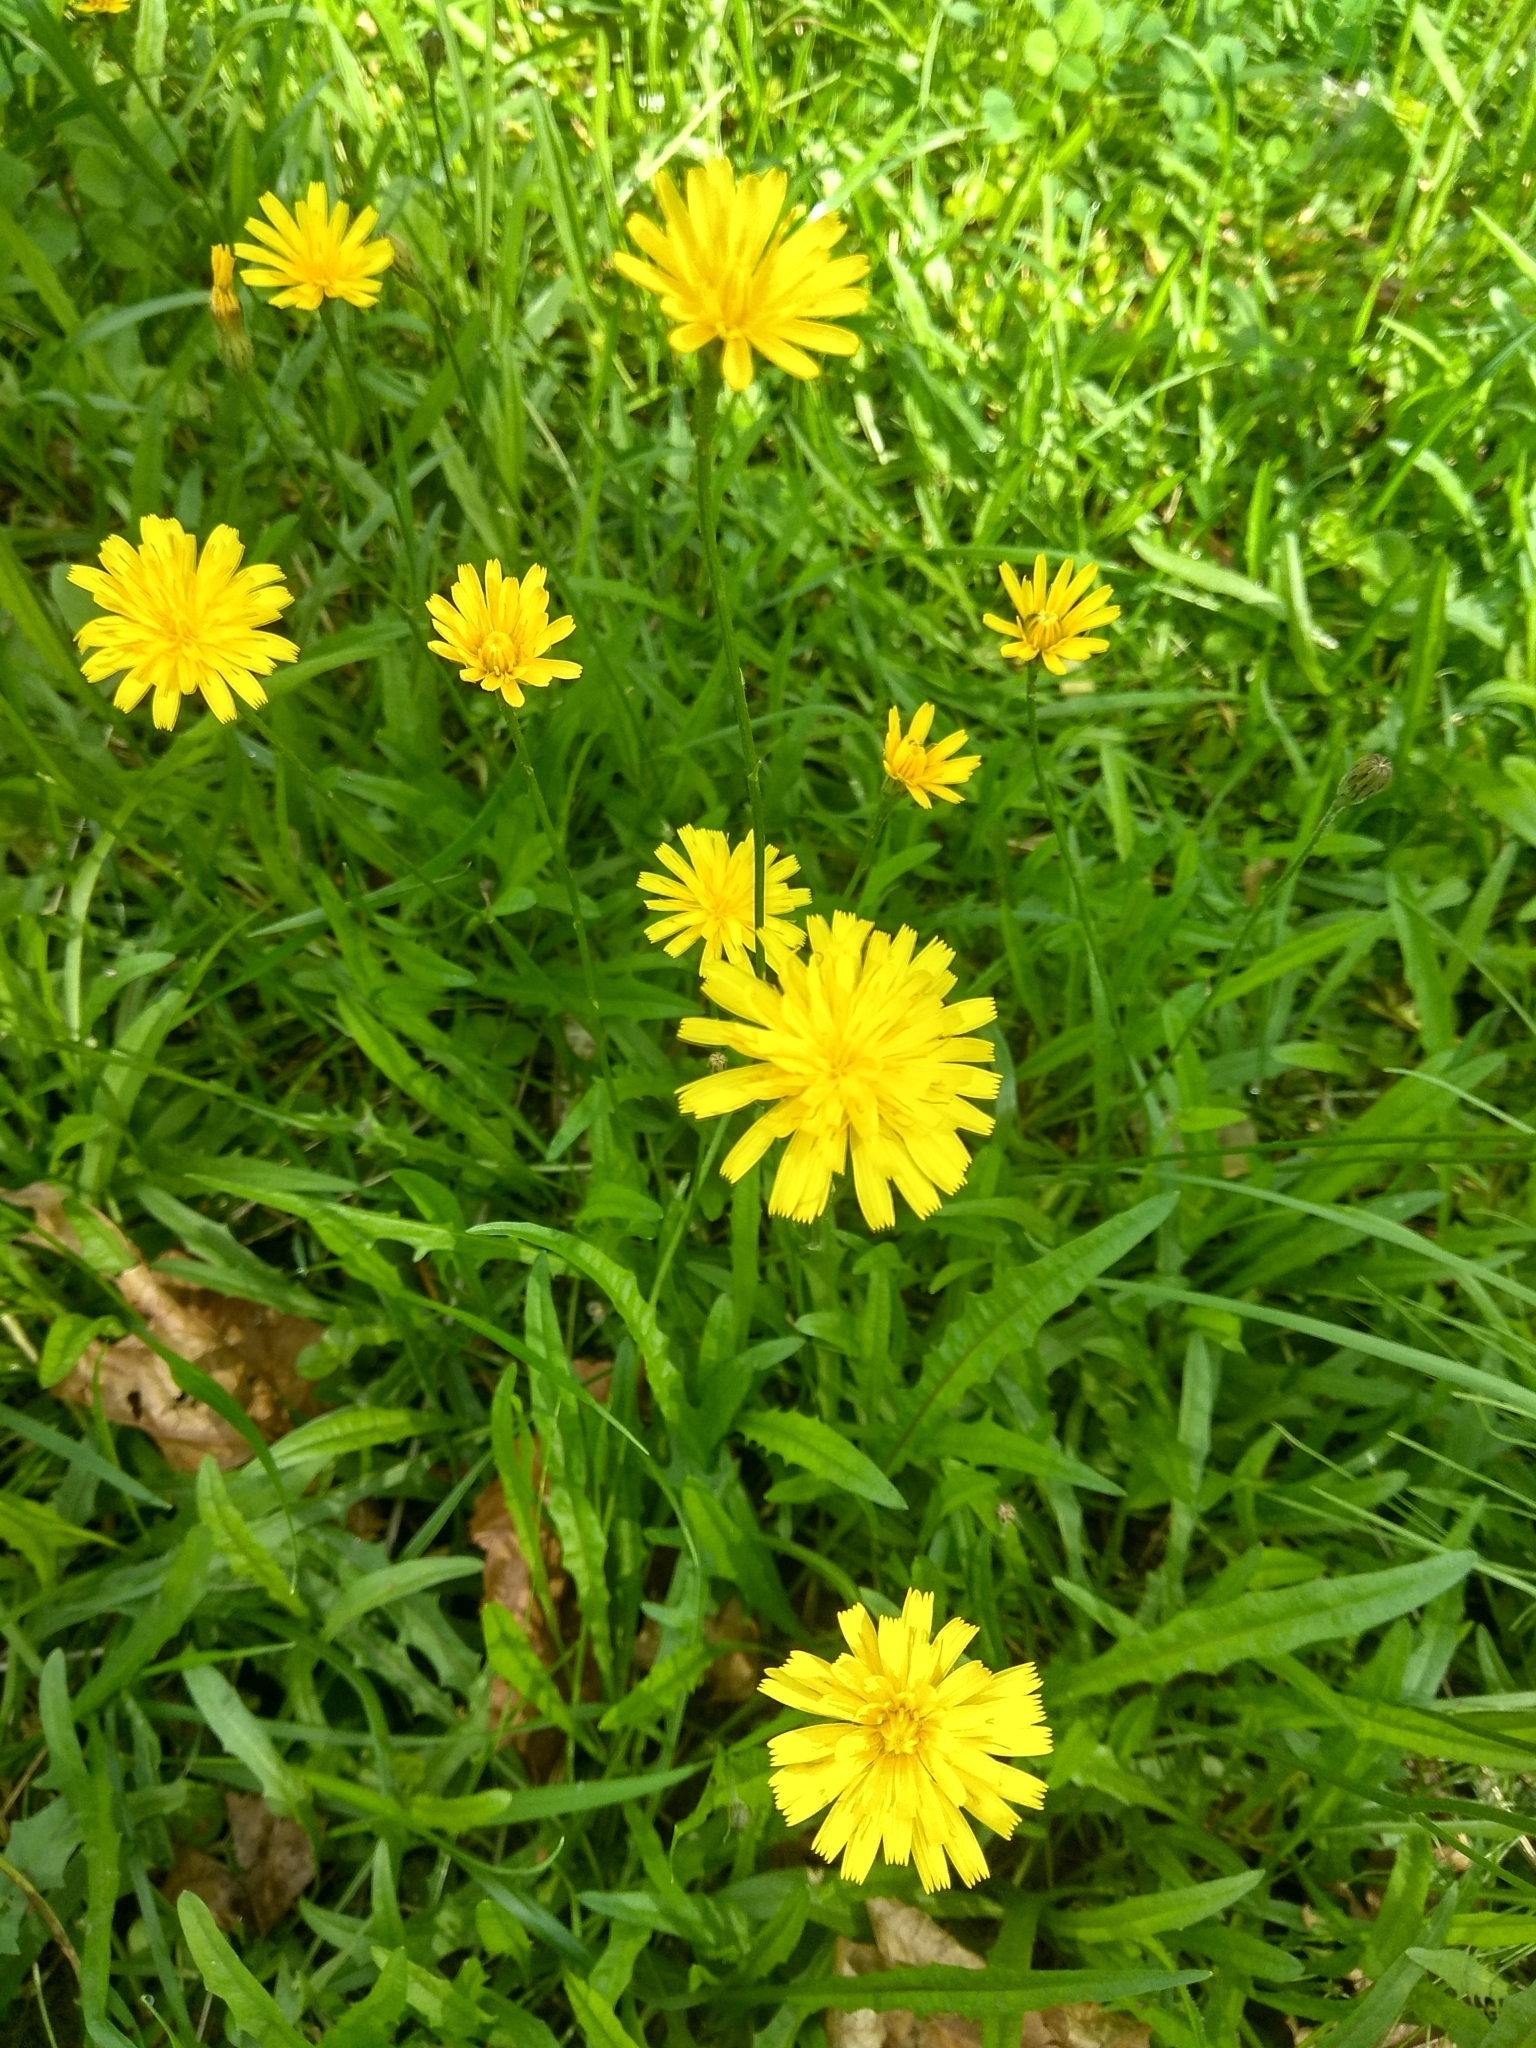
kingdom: Plantae
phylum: Tracheophyta
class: Magnoliopsida
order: Asterales
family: Asteraceae
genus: Scorzoneroides
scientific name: Scorzoneroides autumnalis
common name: Autumn hawkbit
